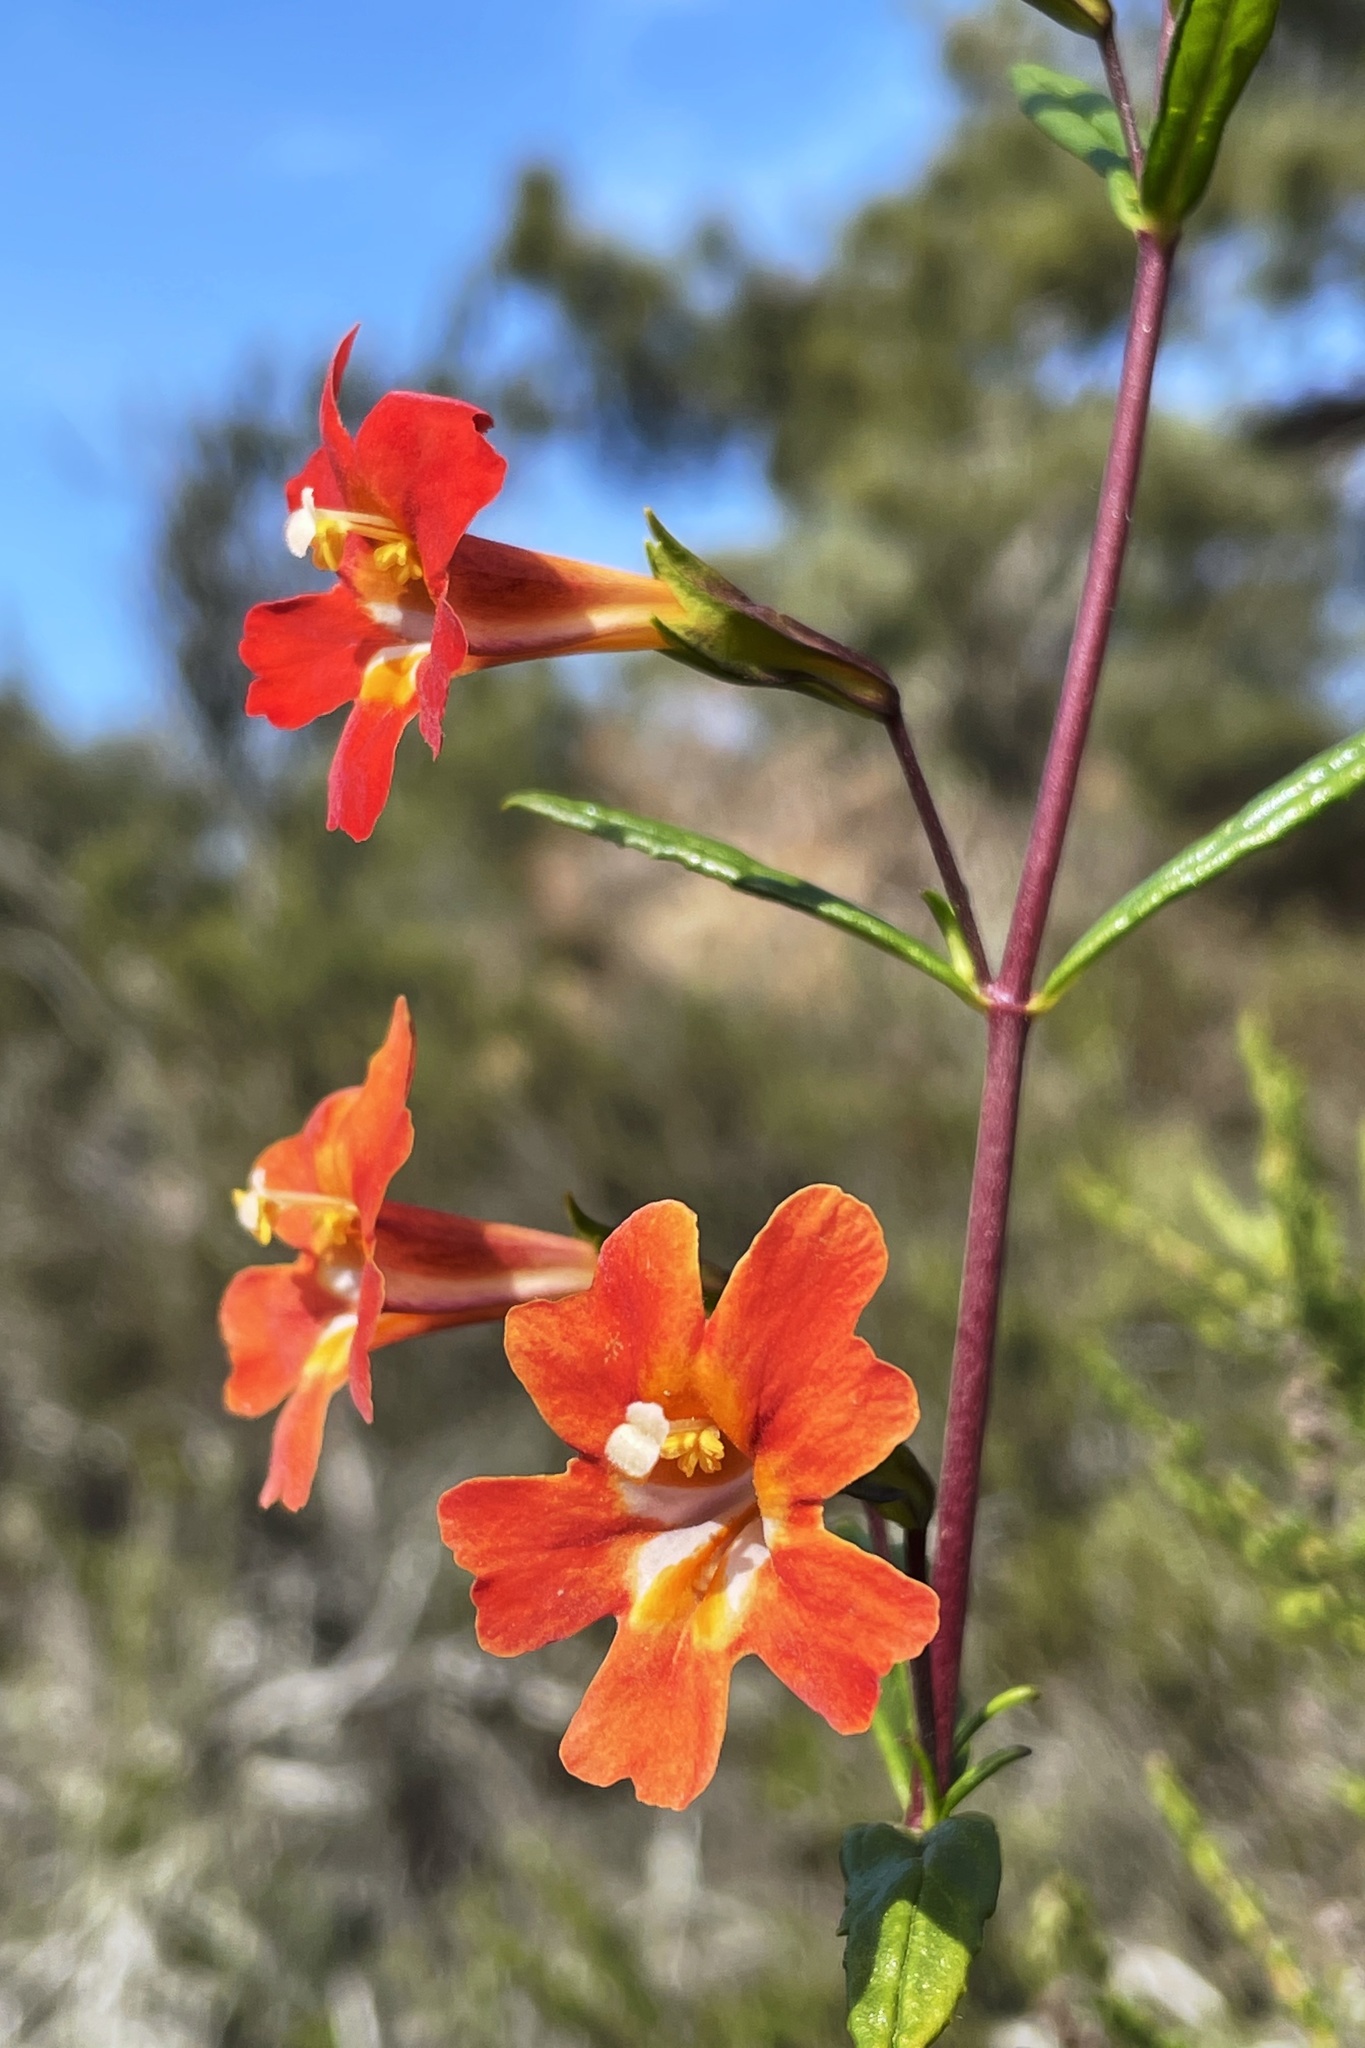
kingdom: Plantae
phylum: Tracheophyta
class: Magnoliopsida
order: Lamiales
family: Phrymaceae
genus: Diplacus
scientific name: Diplacus puniceus
